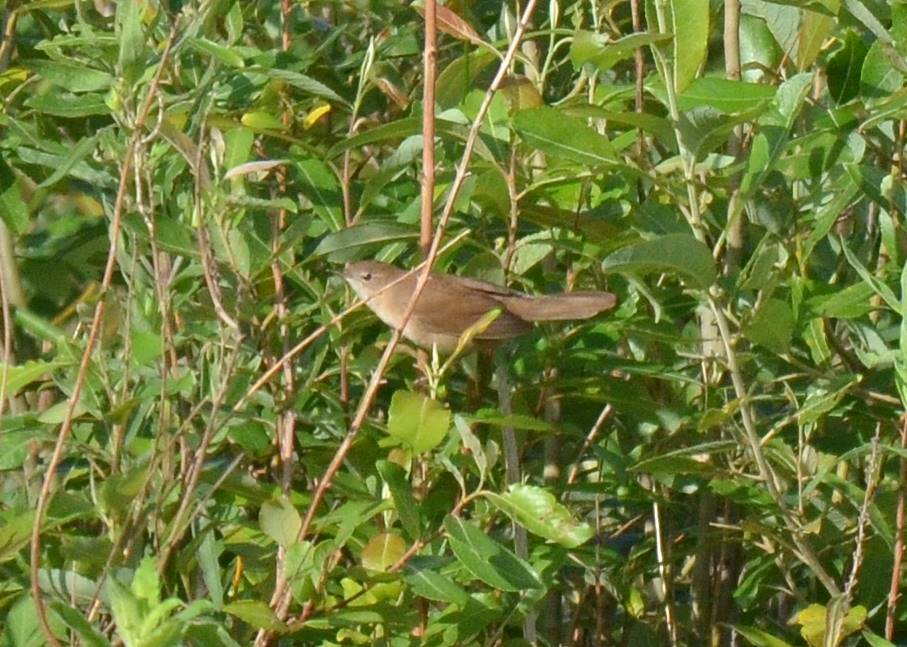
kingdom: Animalia
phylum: Chordata
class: Aves
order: Passeriformes
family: Locustellidae
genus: Locustella
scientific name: Locustella luscinioides
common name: Savi's warbler
